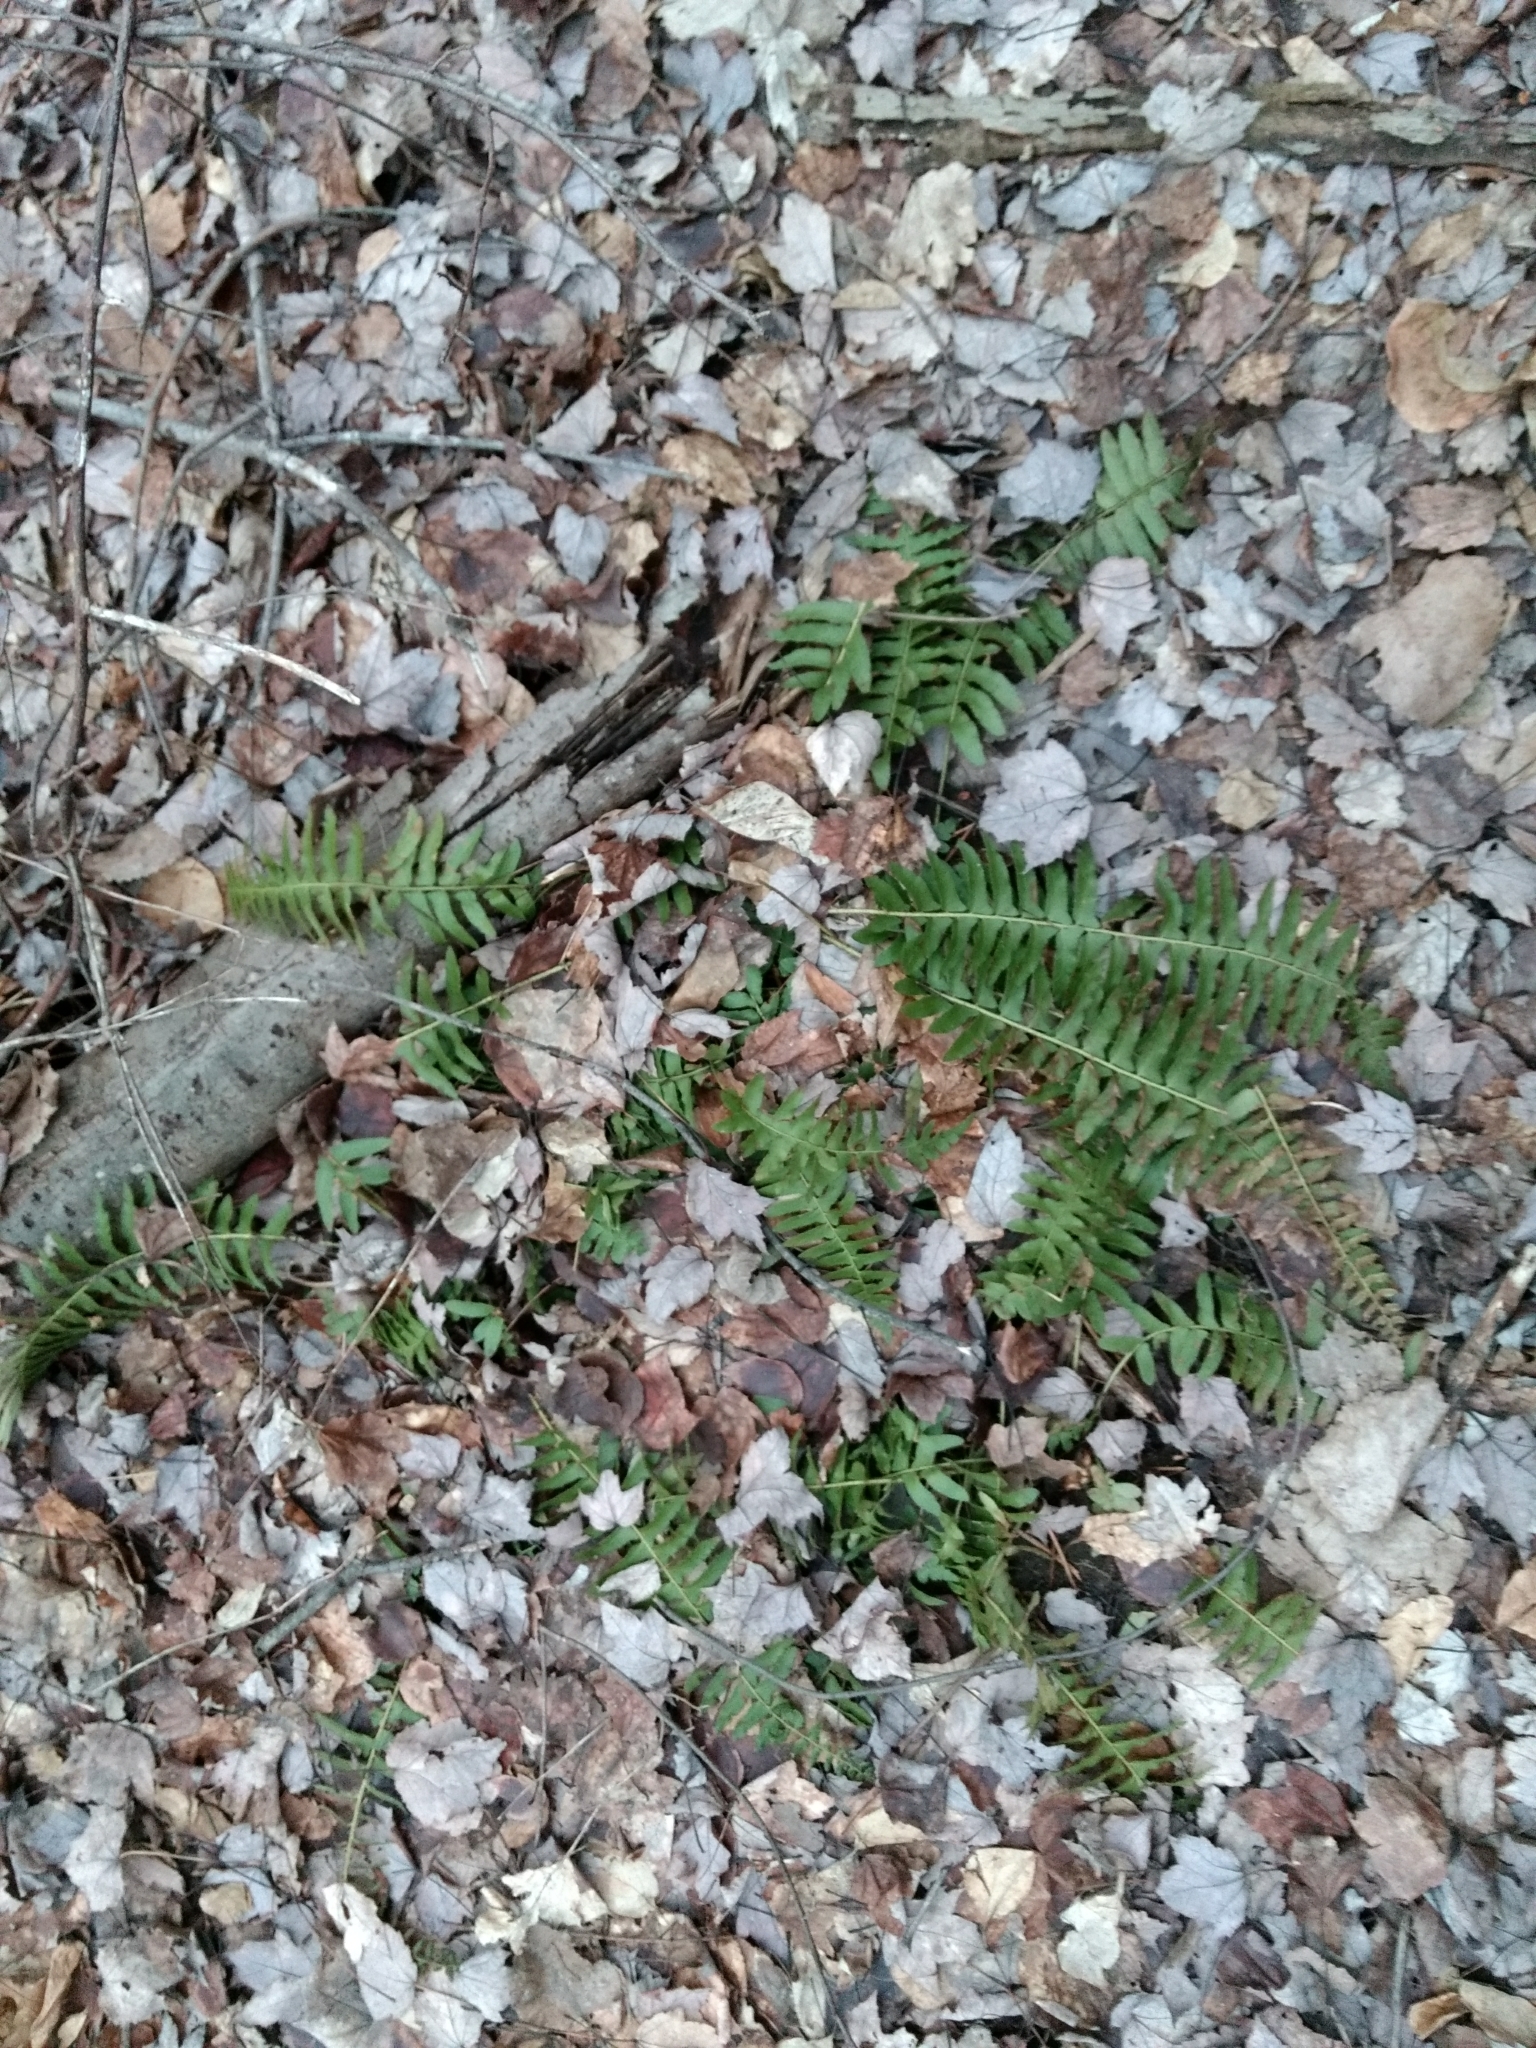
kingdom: Plantae
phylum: Tracheophyta
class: Polypodiopsida
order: Polypodiales
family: Dryopteridaceae
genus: Polystichum
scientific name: Polystichum acrostichoides
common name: Christmas fern
